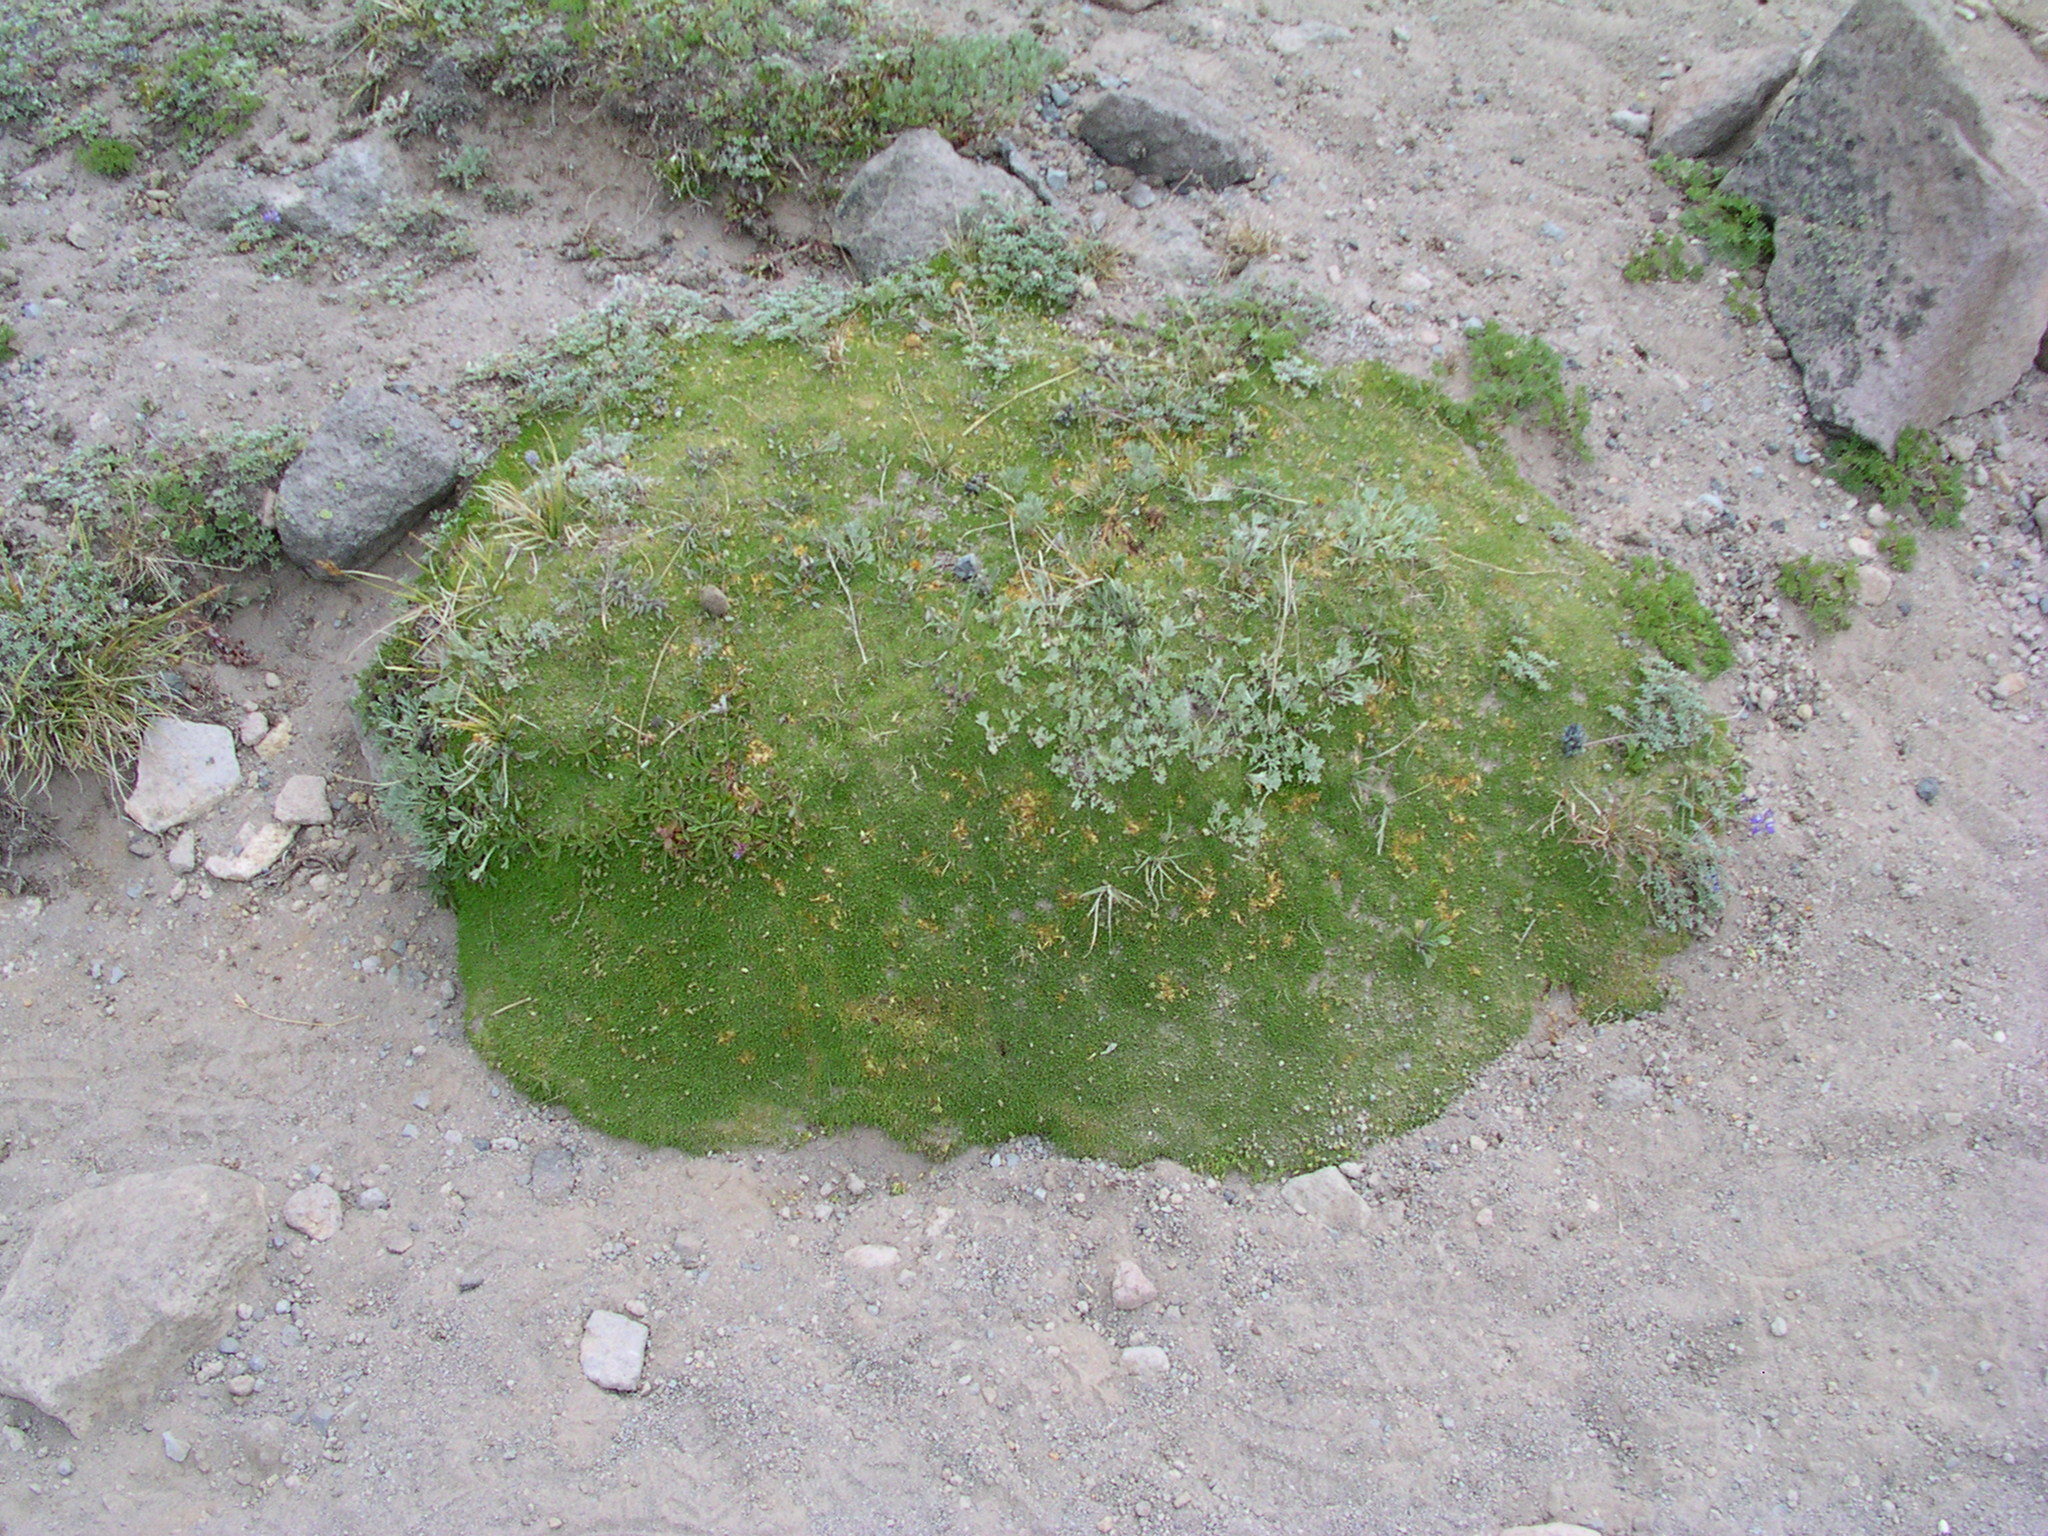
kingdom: Plantae
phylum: Tracheophyta
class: Magnoliopsida
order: Caryophyllales
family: Caryophyllaceae
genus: Silene
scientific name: Silene acaulis
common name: Moss campion
